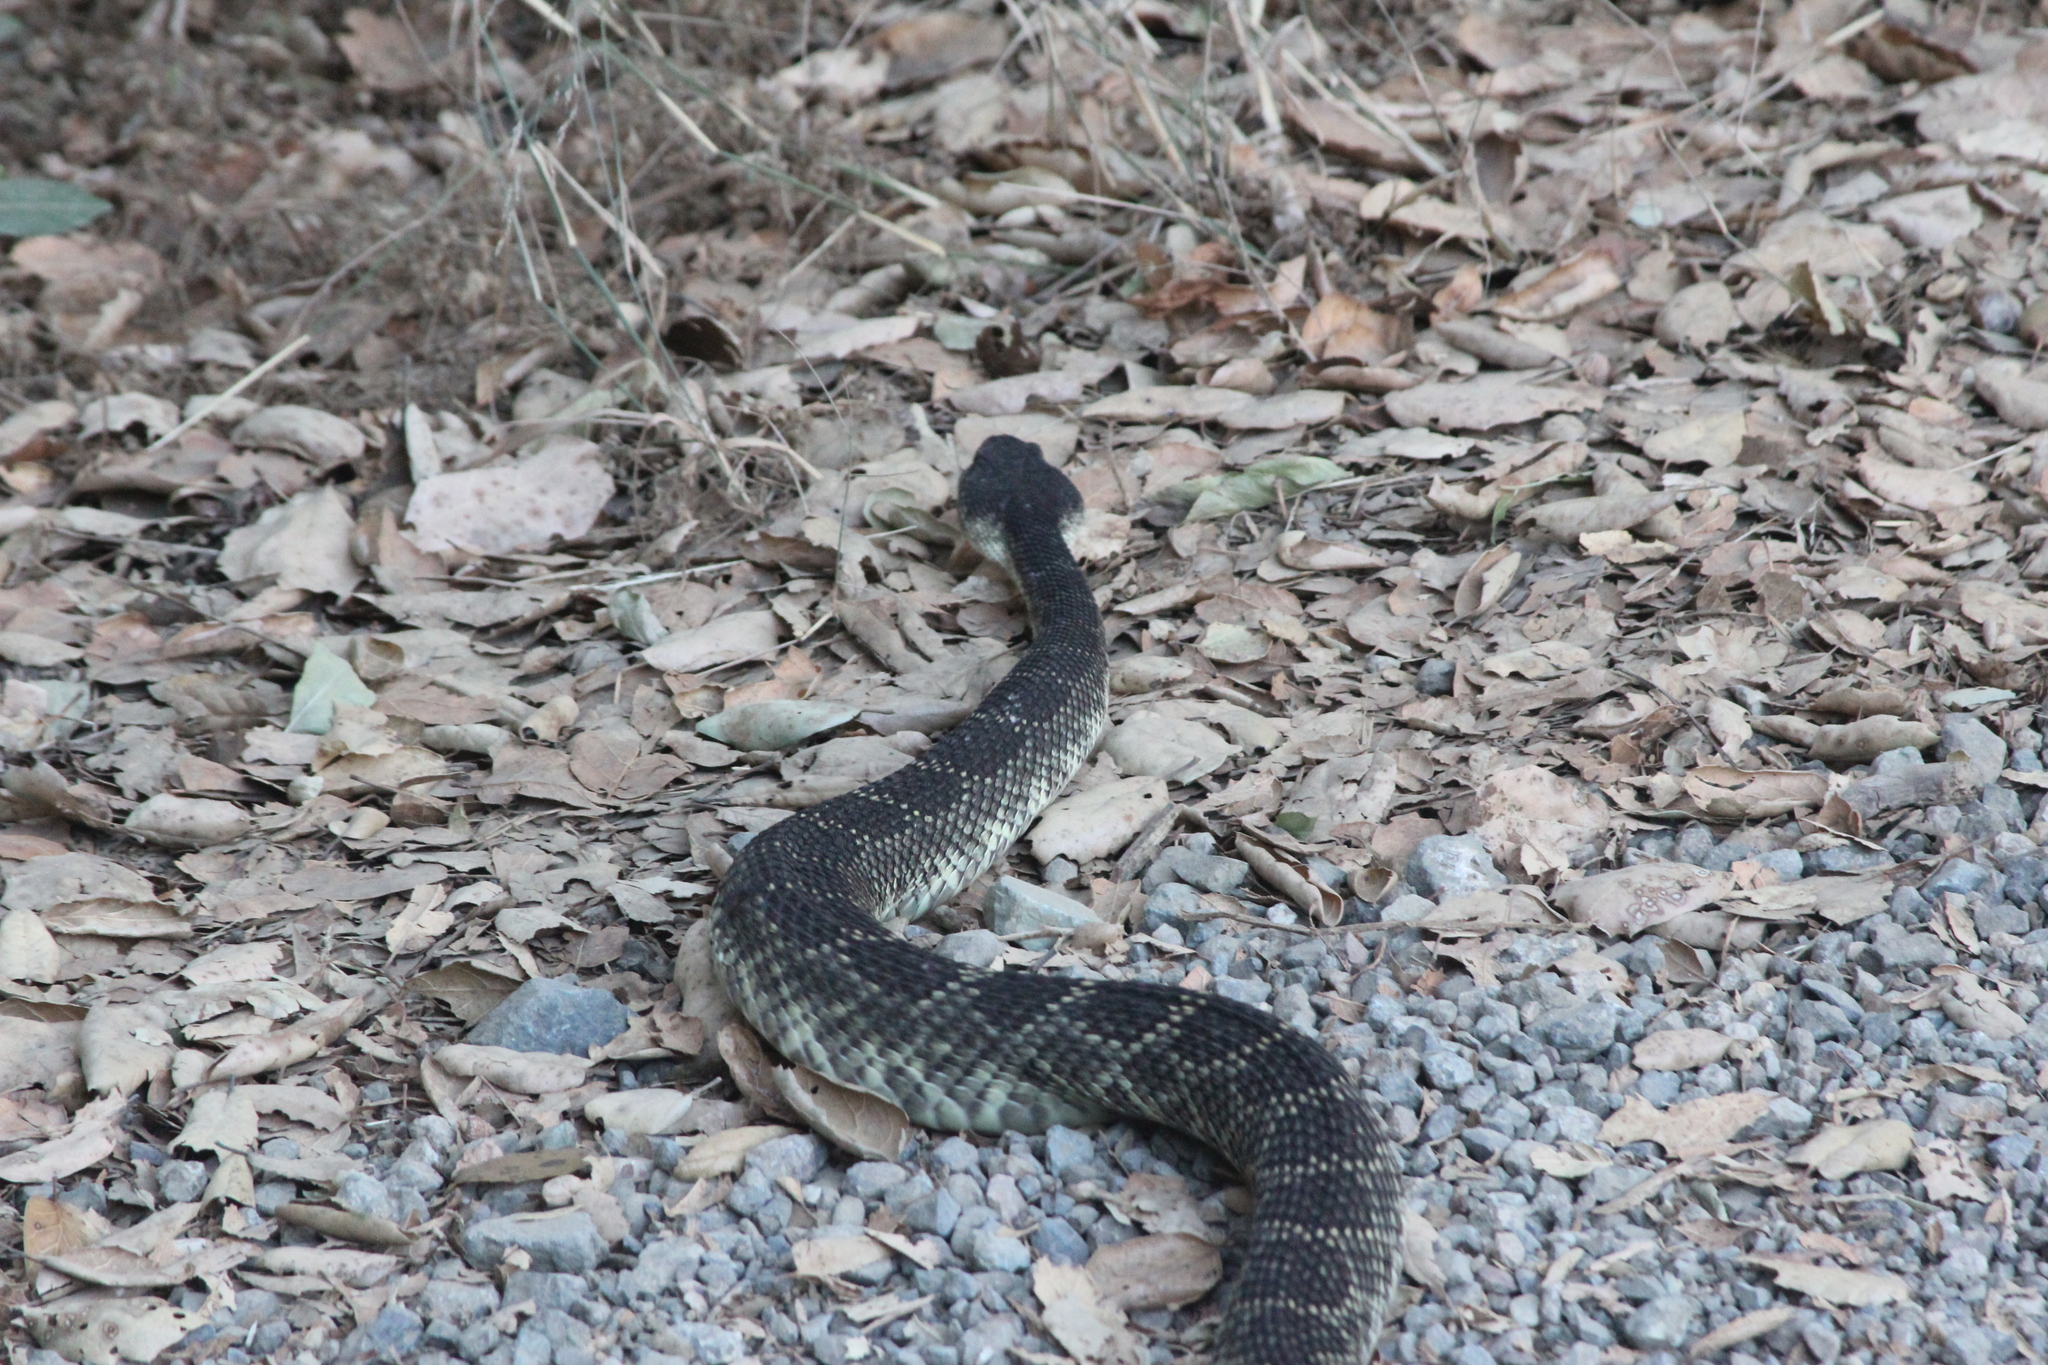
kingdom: Animalia
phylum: Chordata
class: Squamata
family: Viperidae
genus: Crotalus
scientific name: Crotalus oreganus
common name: Abyssus
